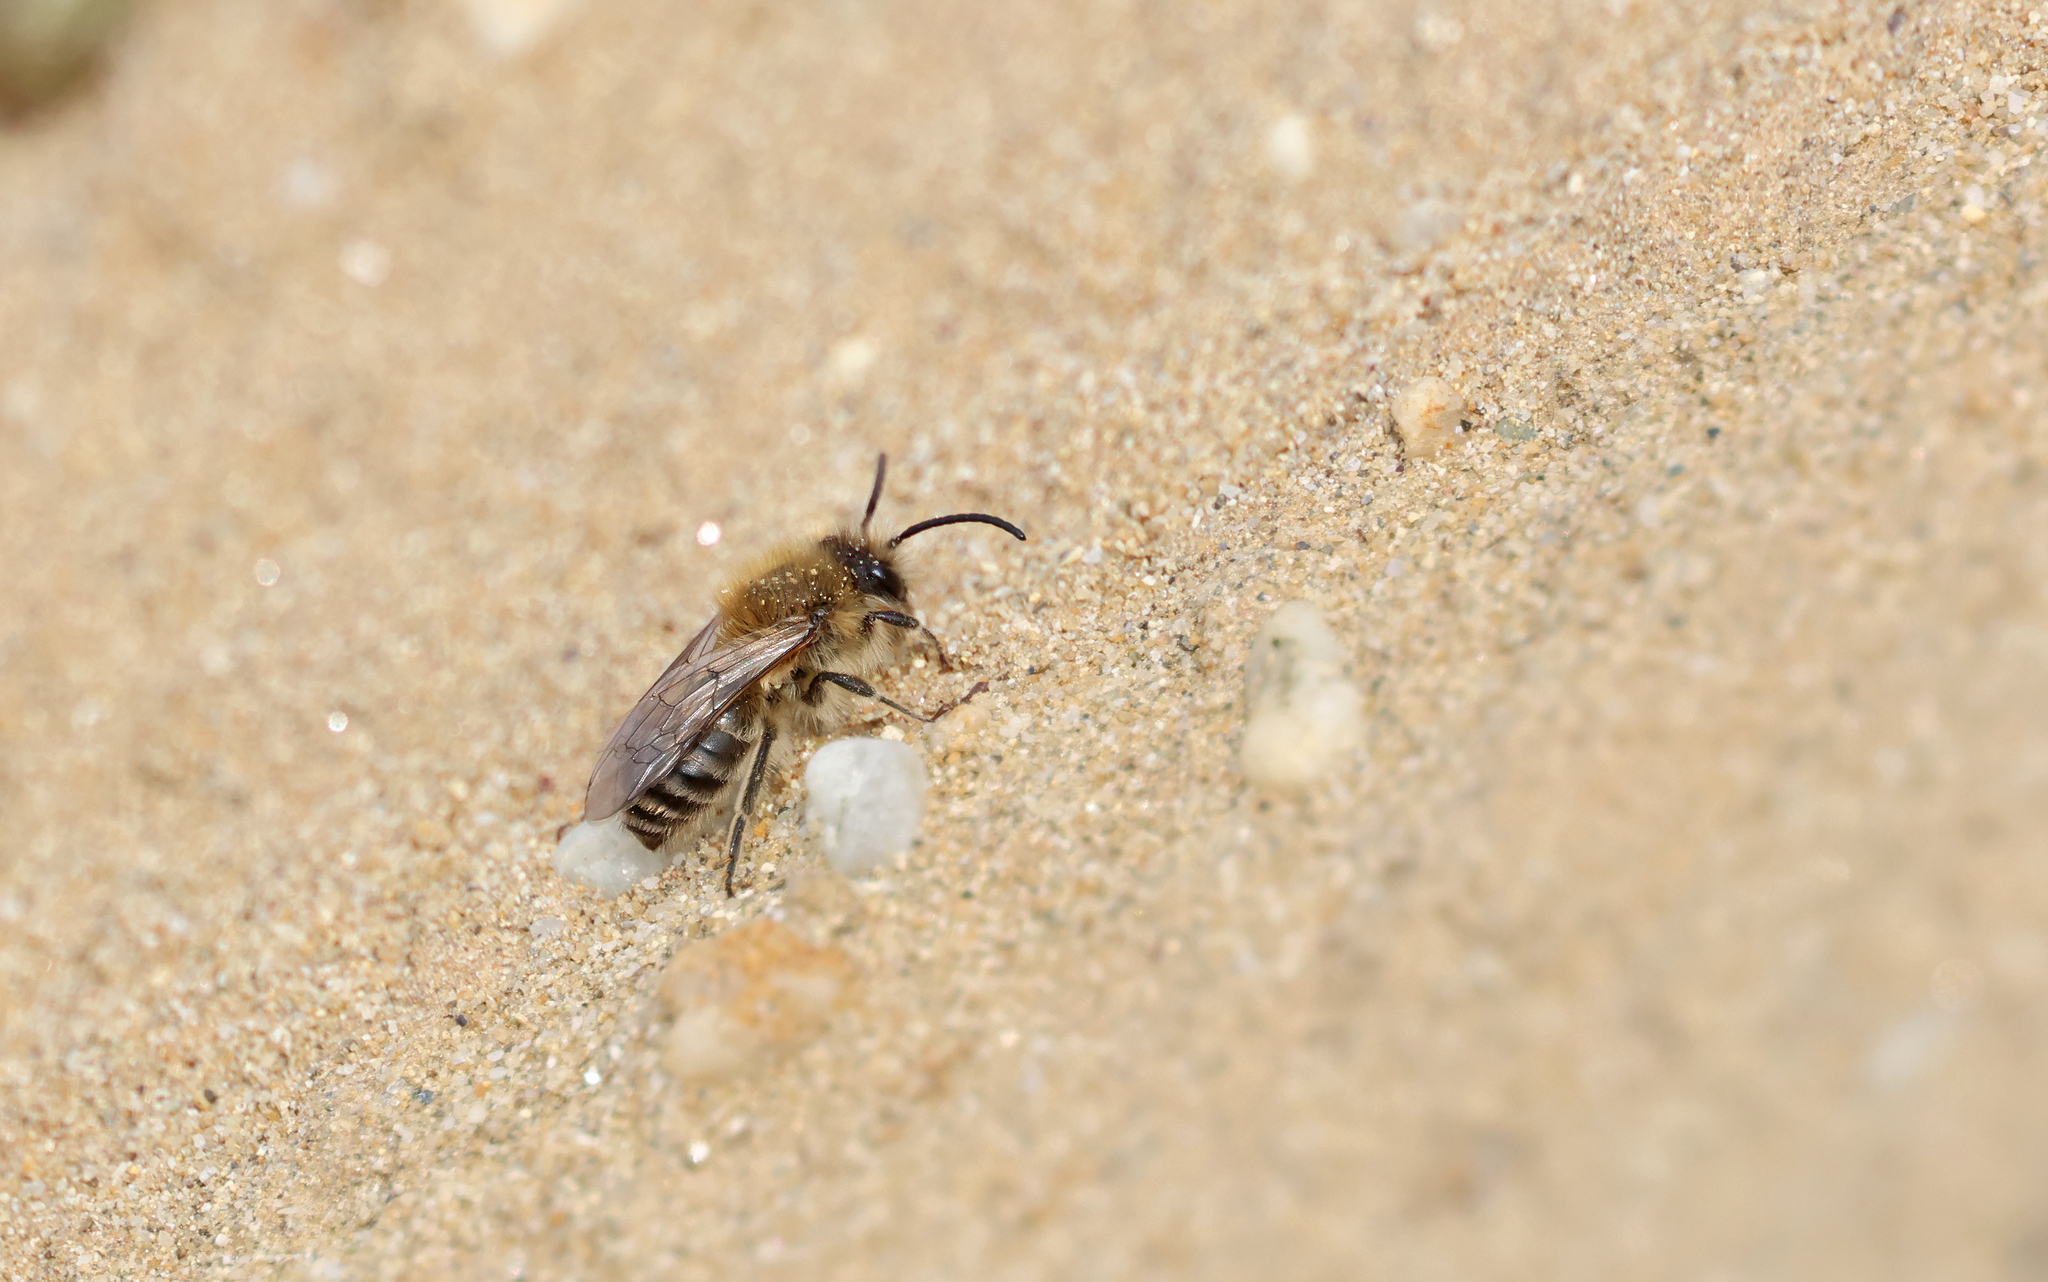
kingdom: Animalia
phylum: Arthropoda
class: Insecta
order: Hymenoptera
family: Colletidae
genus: Colletes
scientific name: Colletes cunicularius
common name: Early colletes
